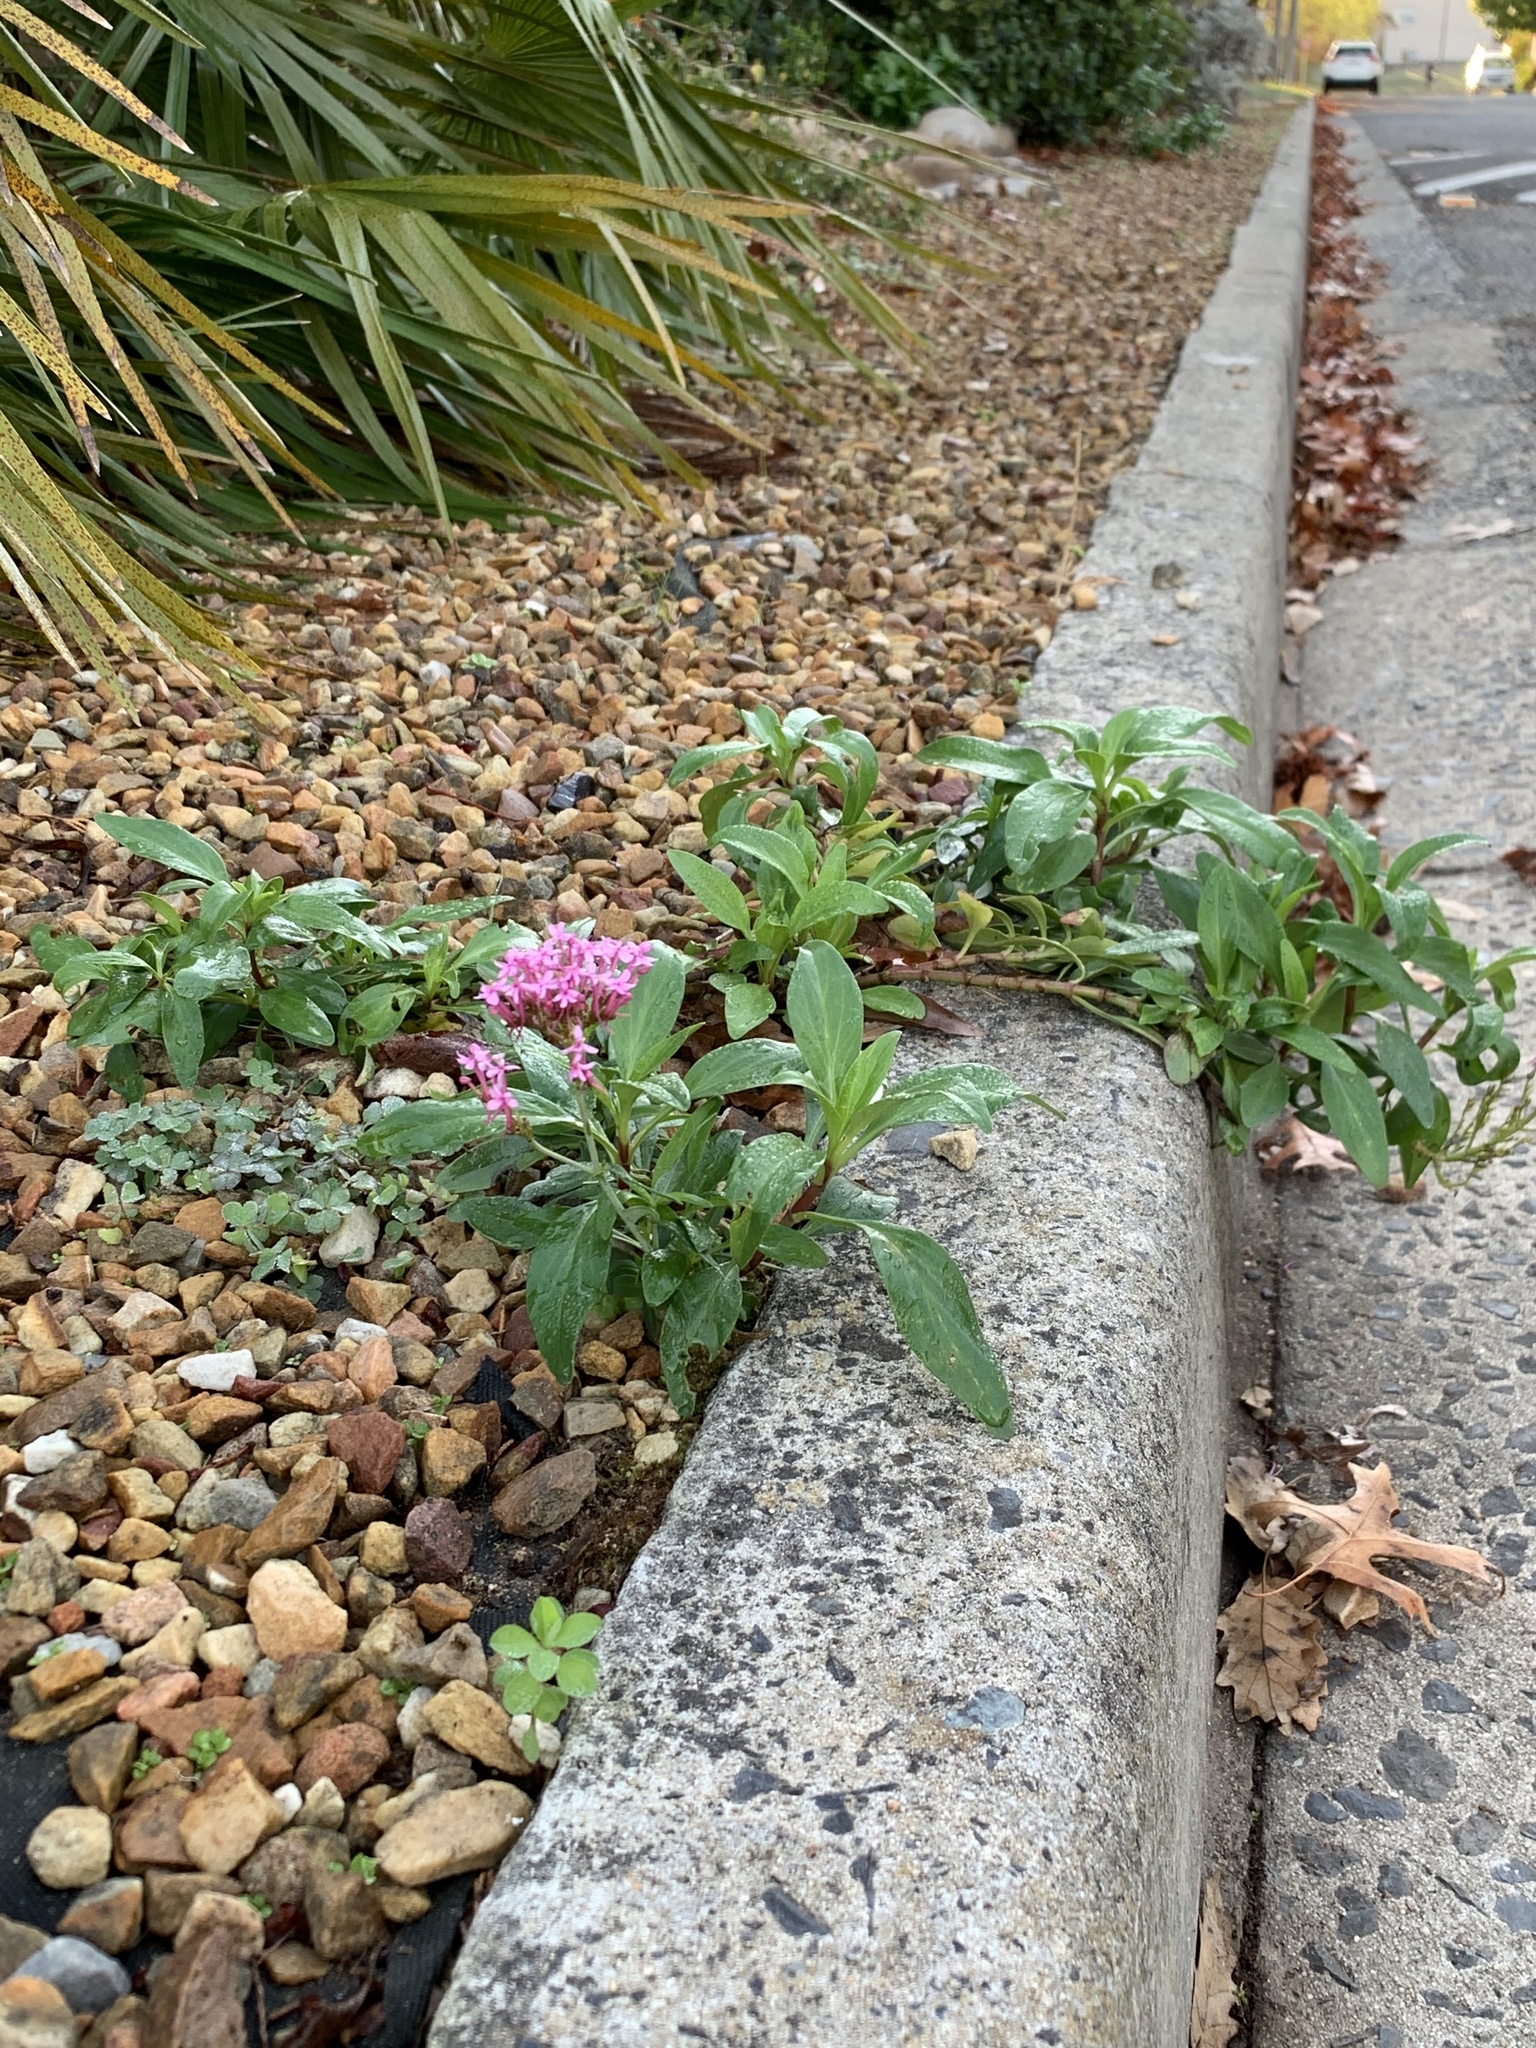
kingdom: Plantae
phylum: Tracheophyta
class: Magnoliopsida
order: Dipsacales
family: Caprifoliaceae
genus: Centranthus
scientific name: Centranthus ruber
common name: Red valerian
